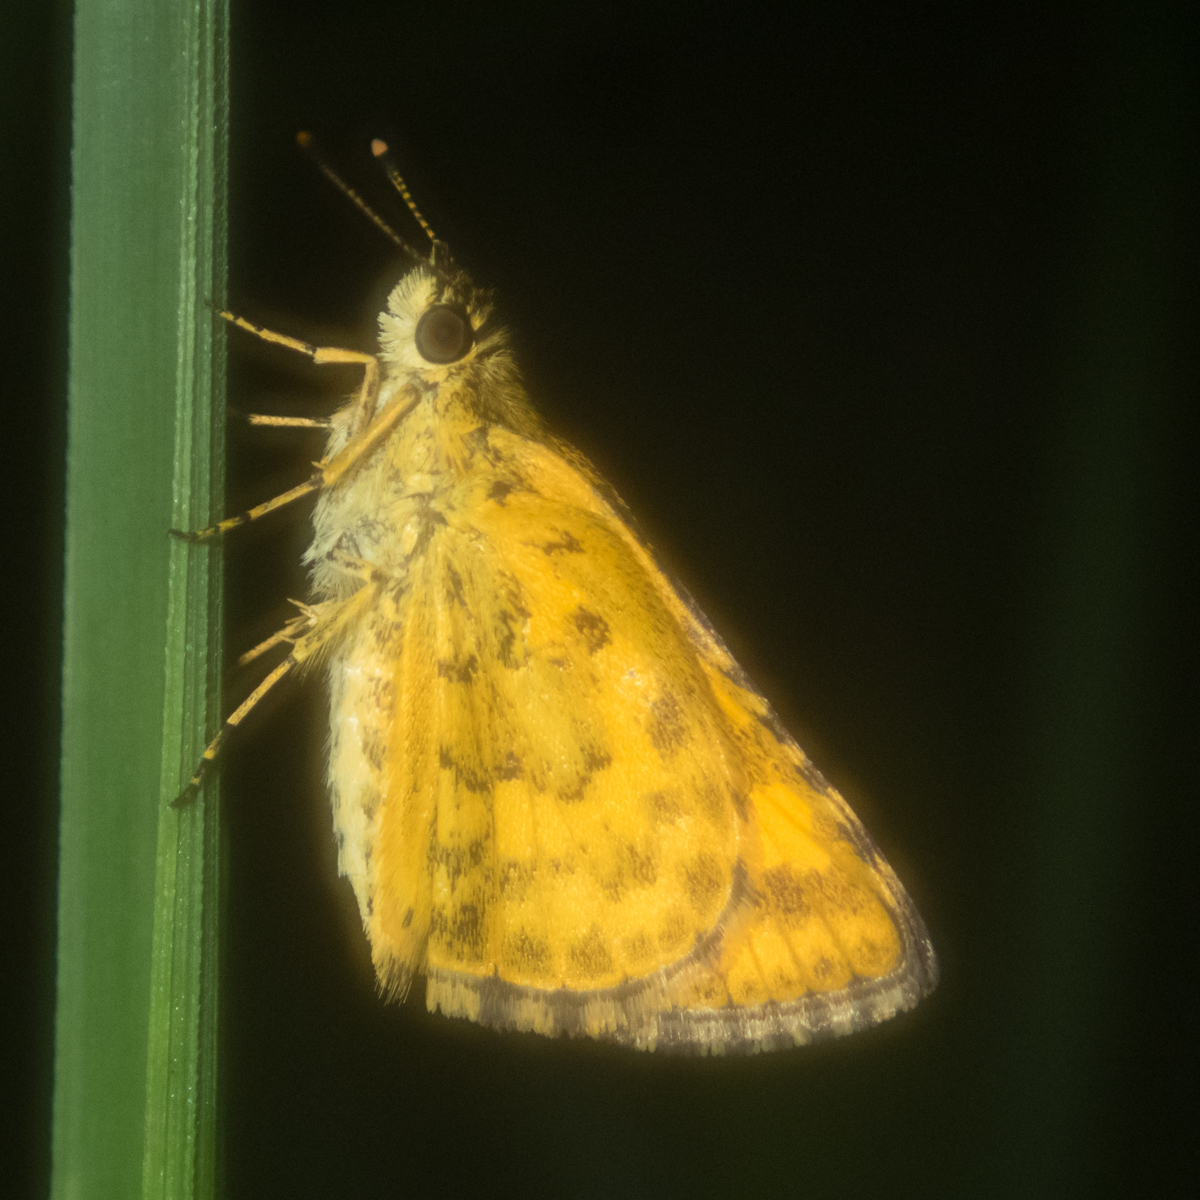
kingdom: Animalia
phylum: Arthropoda
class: Insecta
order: Lepidoptera
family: Hesperiidae
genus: Ampittia
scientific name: Ampittia dioscorides
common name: Common bush hopper
